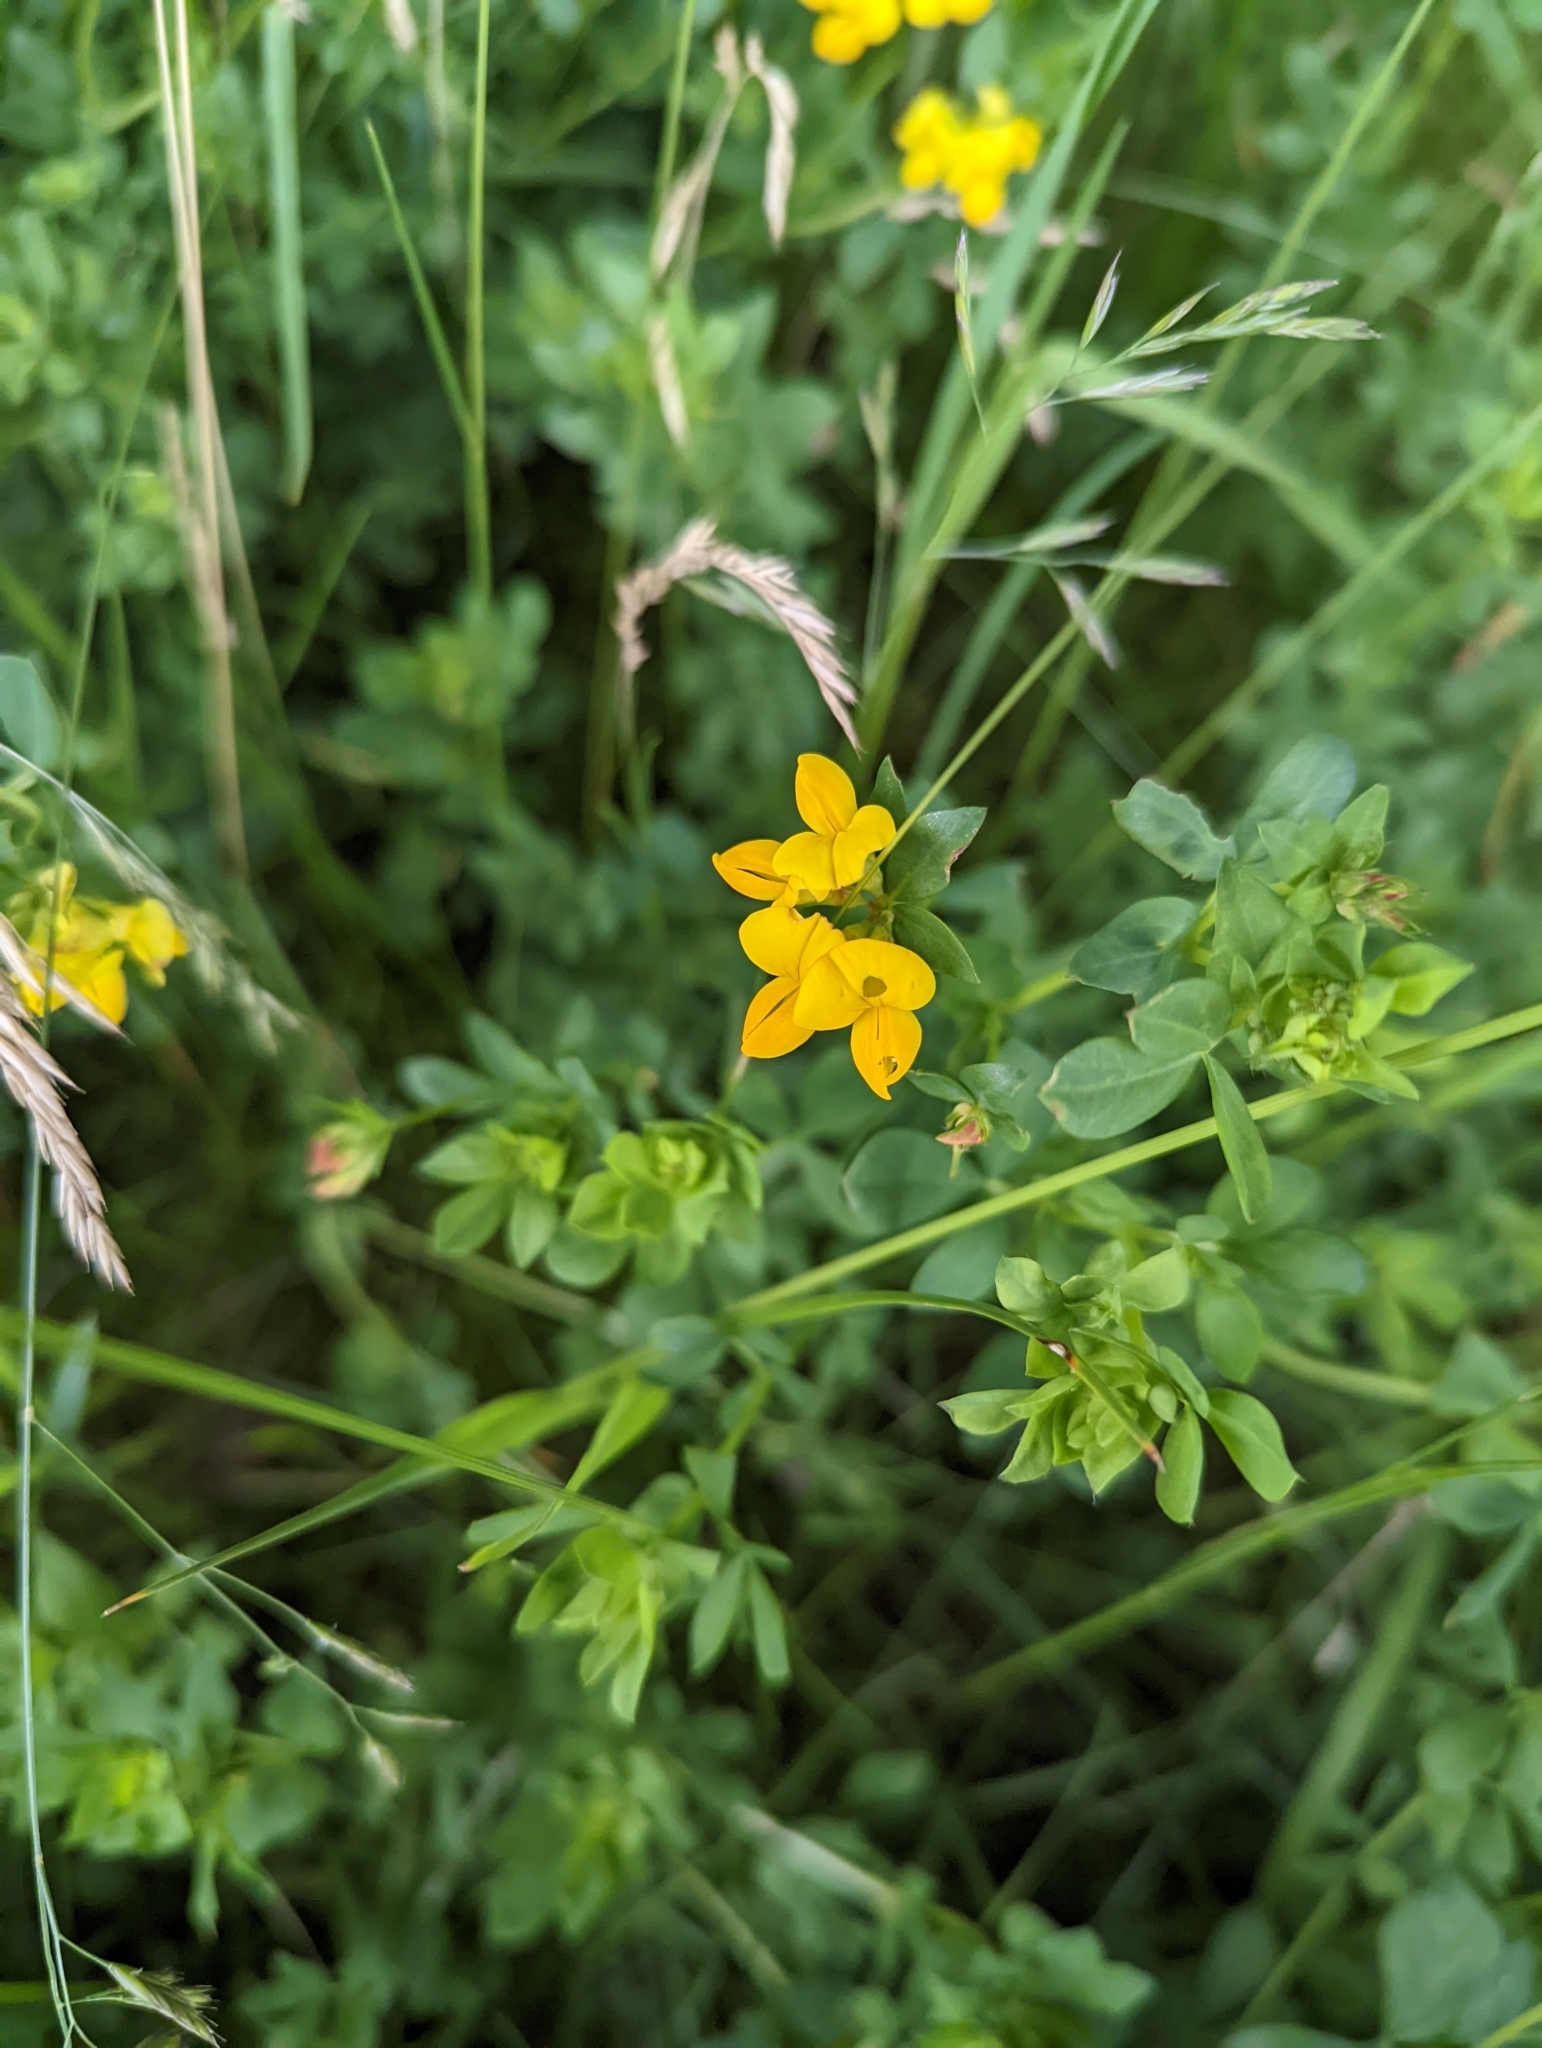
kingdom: Plantae
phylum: Tracheophyta
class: Magnoliopsida
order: Fabales
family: Fabaceae
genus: Lotus
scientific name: Lotus corniculatus
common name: Common bird's-foot-trefoil
